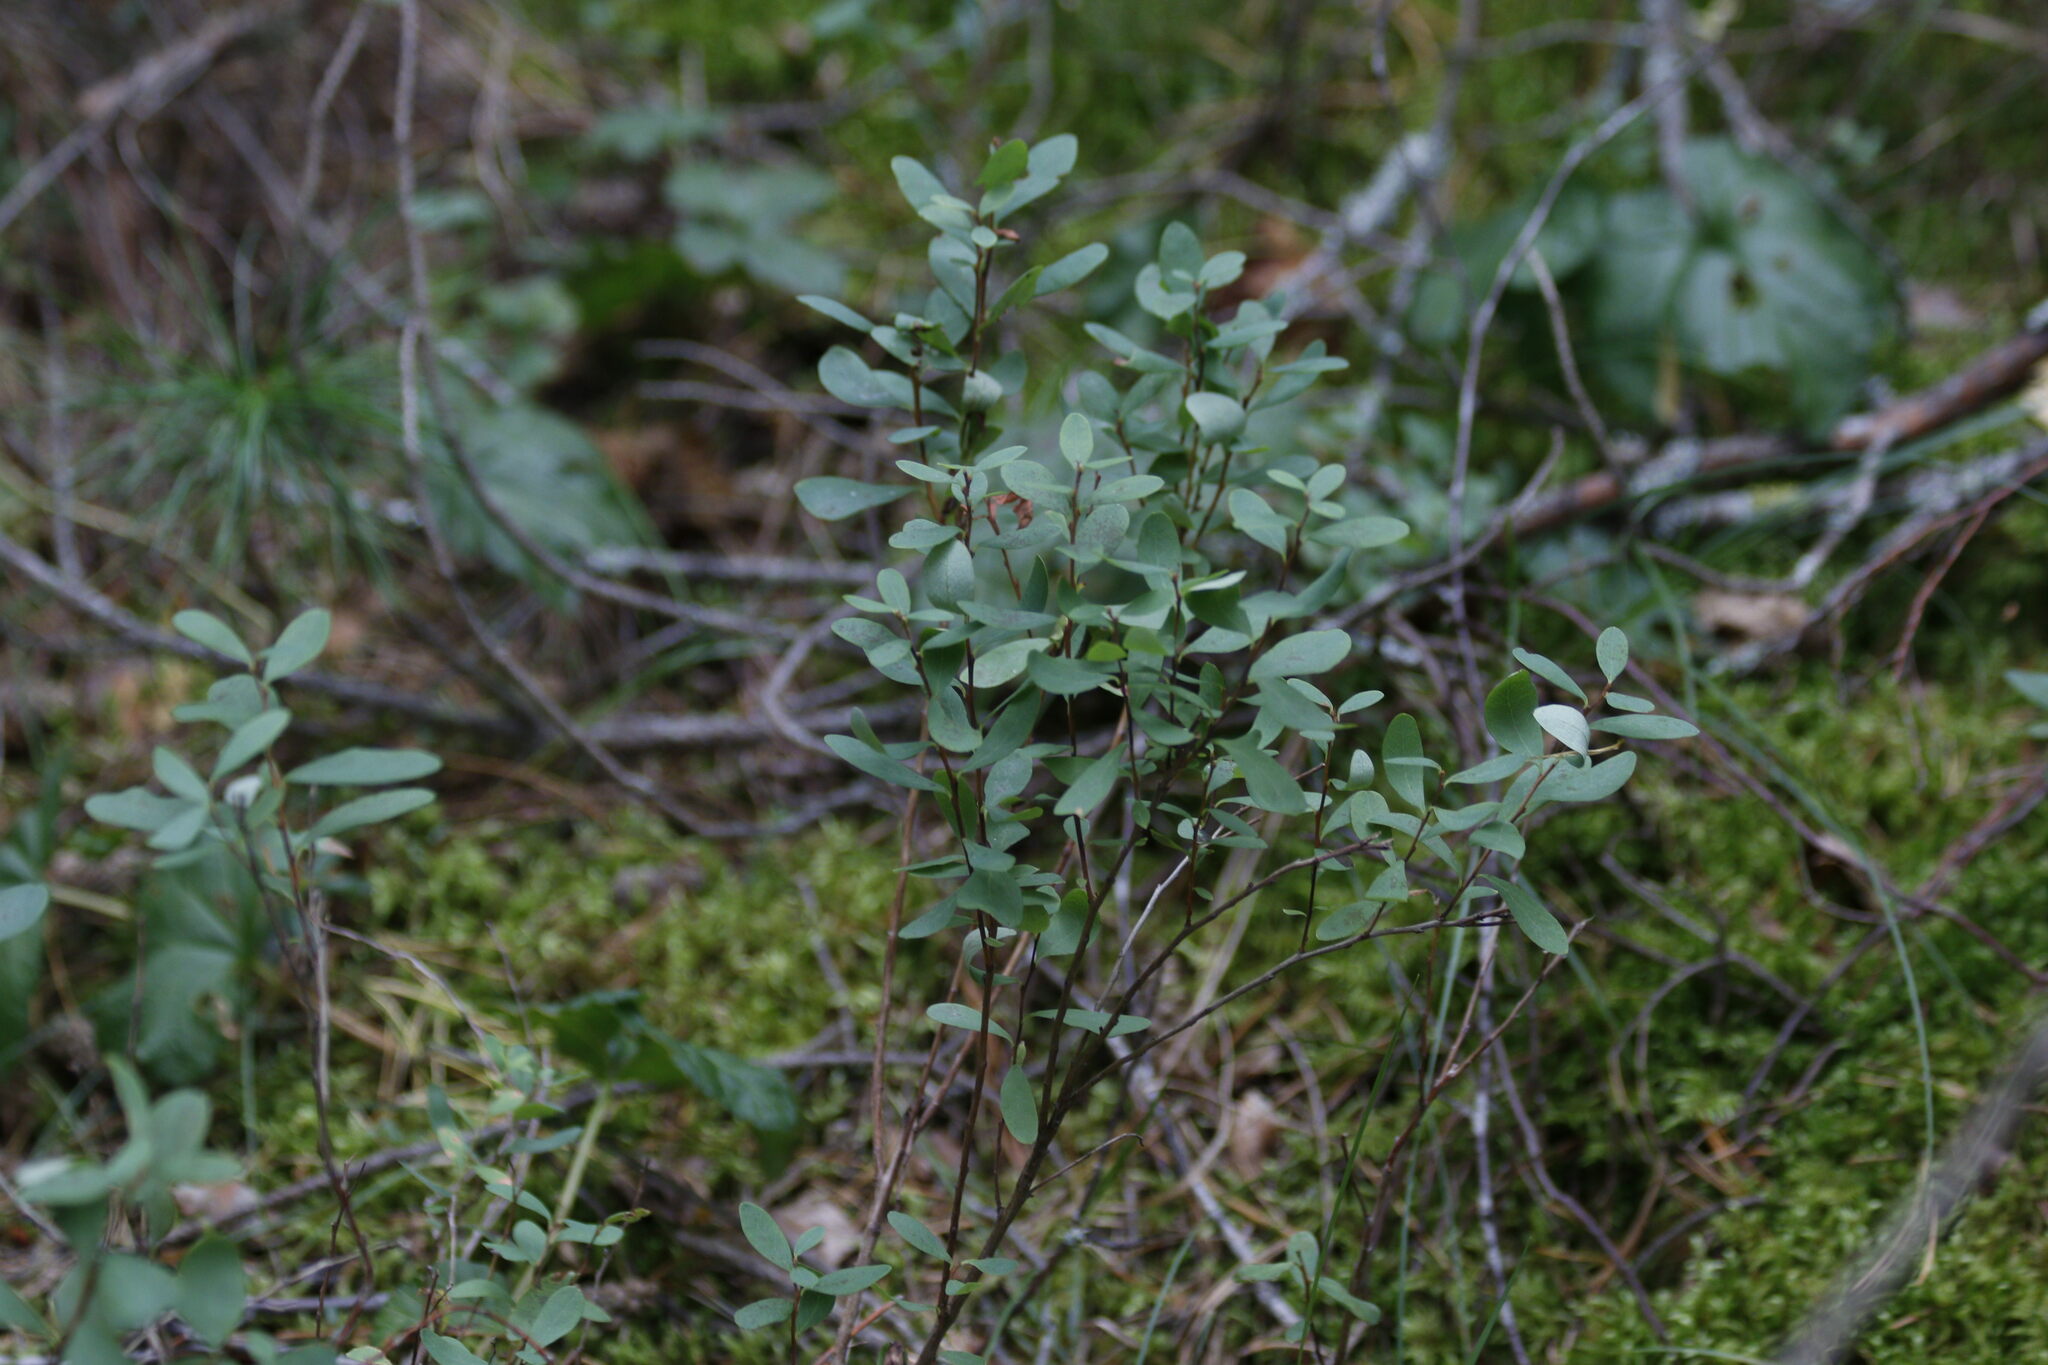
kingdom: Plantae
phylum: Tracheophyta
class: Magnoliopsida
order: Ericales
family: Ericaceae
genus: Vaccinium
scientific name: Vaccinium uliginosum
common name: Bog bilberry
